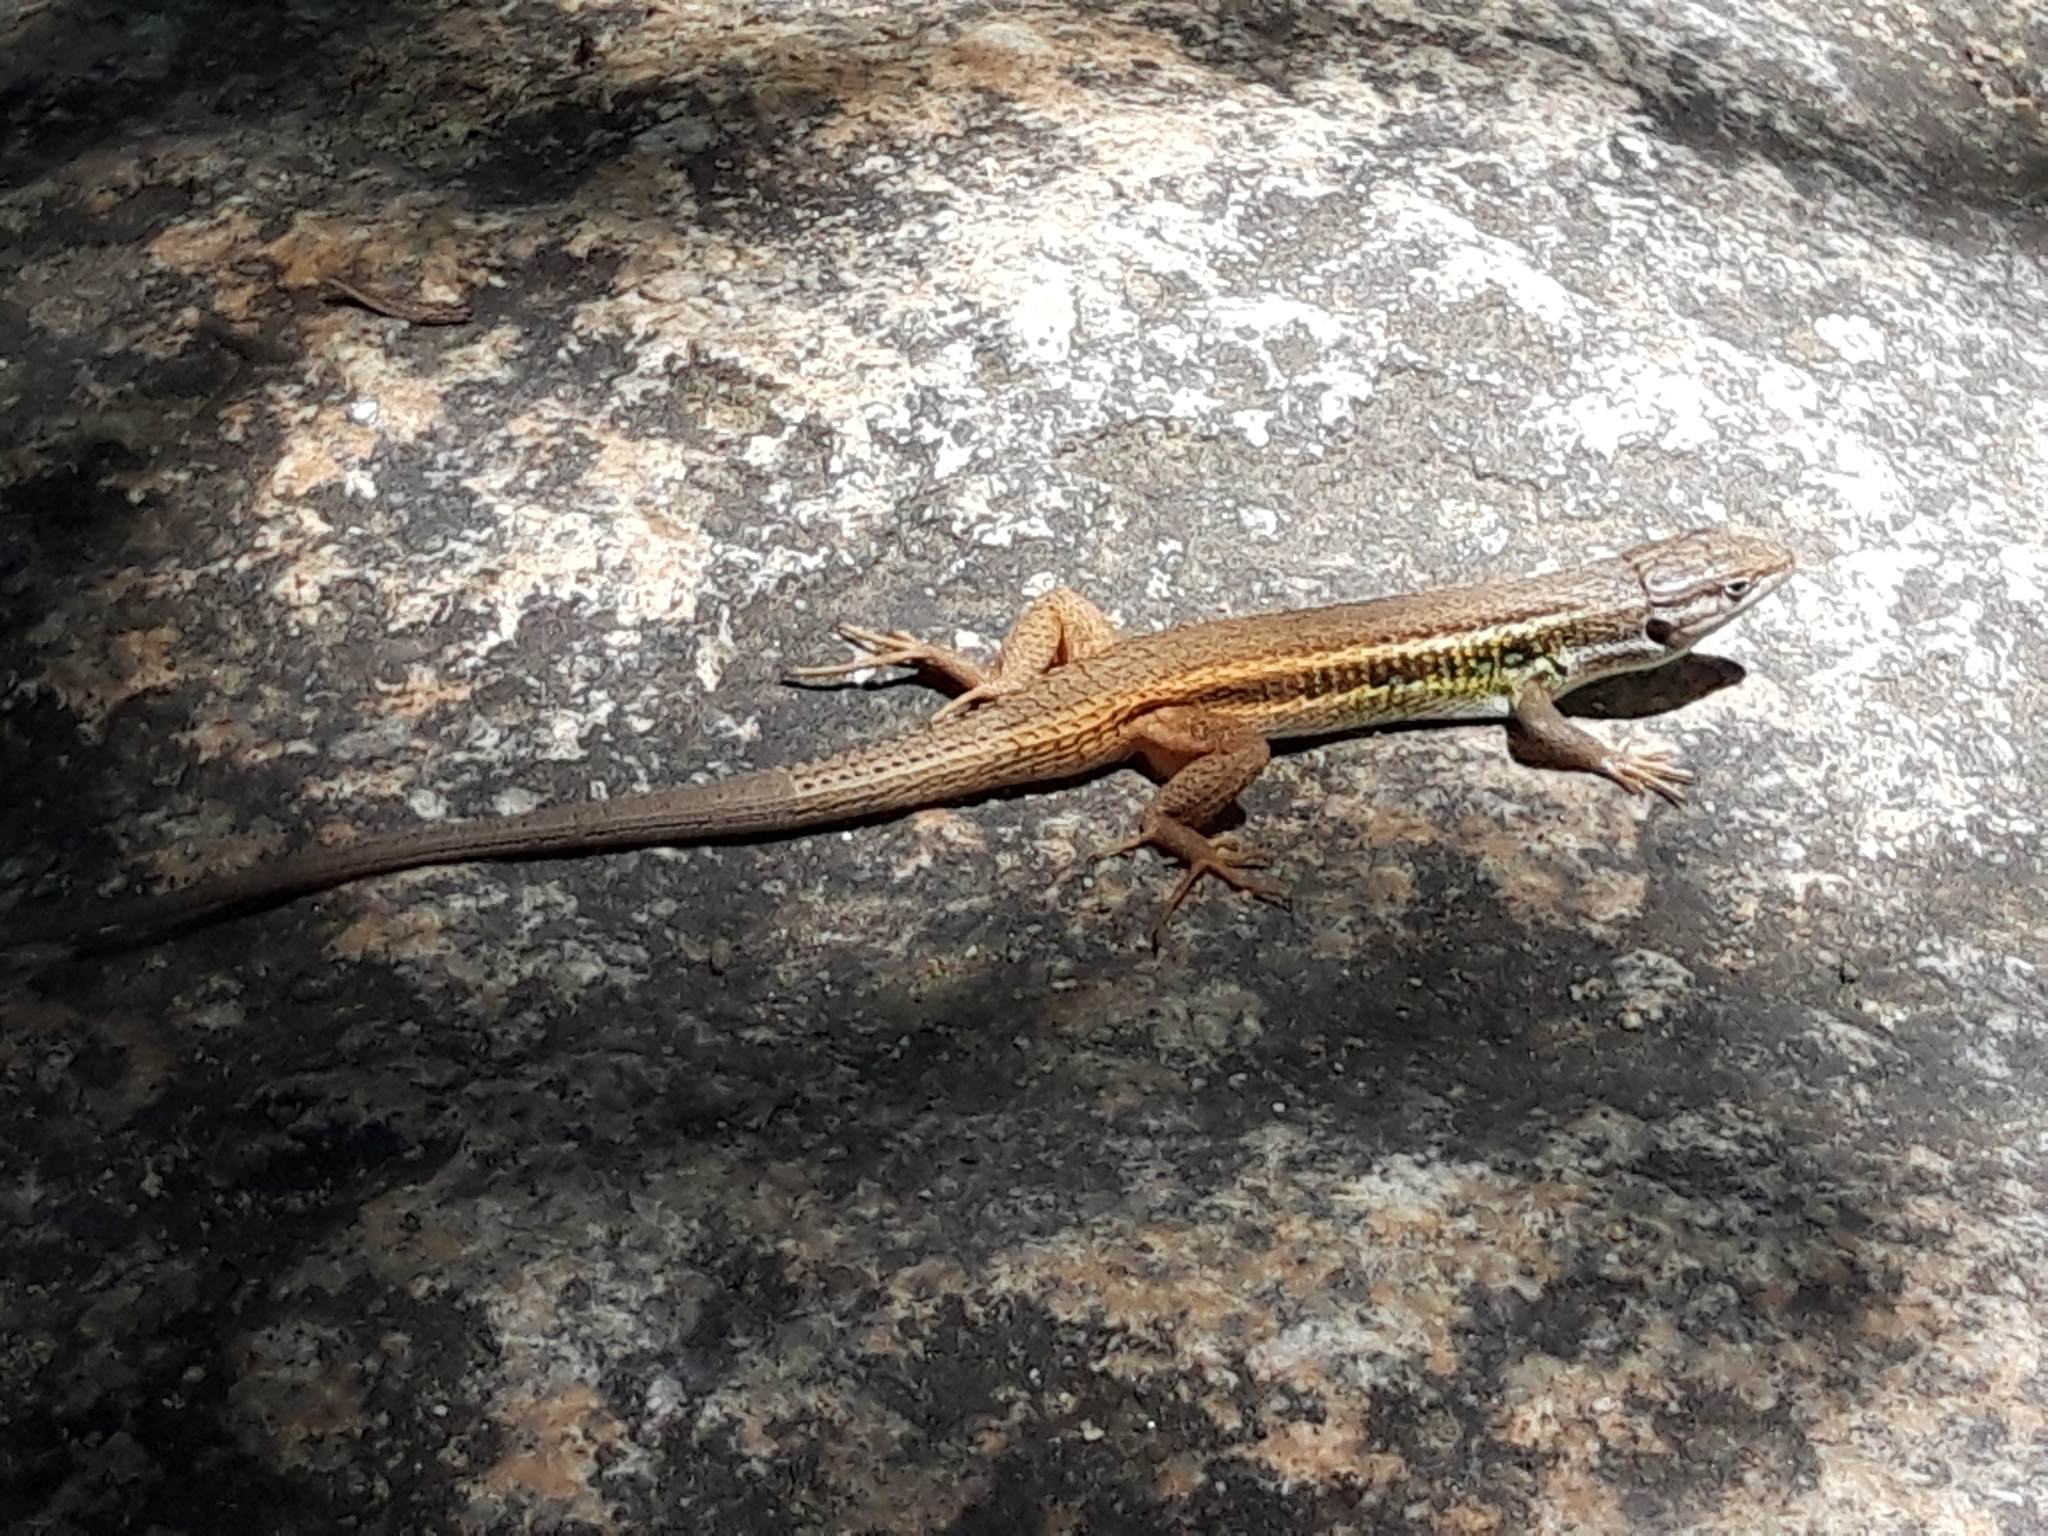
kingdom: Animalia
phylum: Chordata
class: Squamata
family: Lacertidae
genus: Psammodromus
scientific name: Psammodromus algirus
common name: Algerian psammodromus
